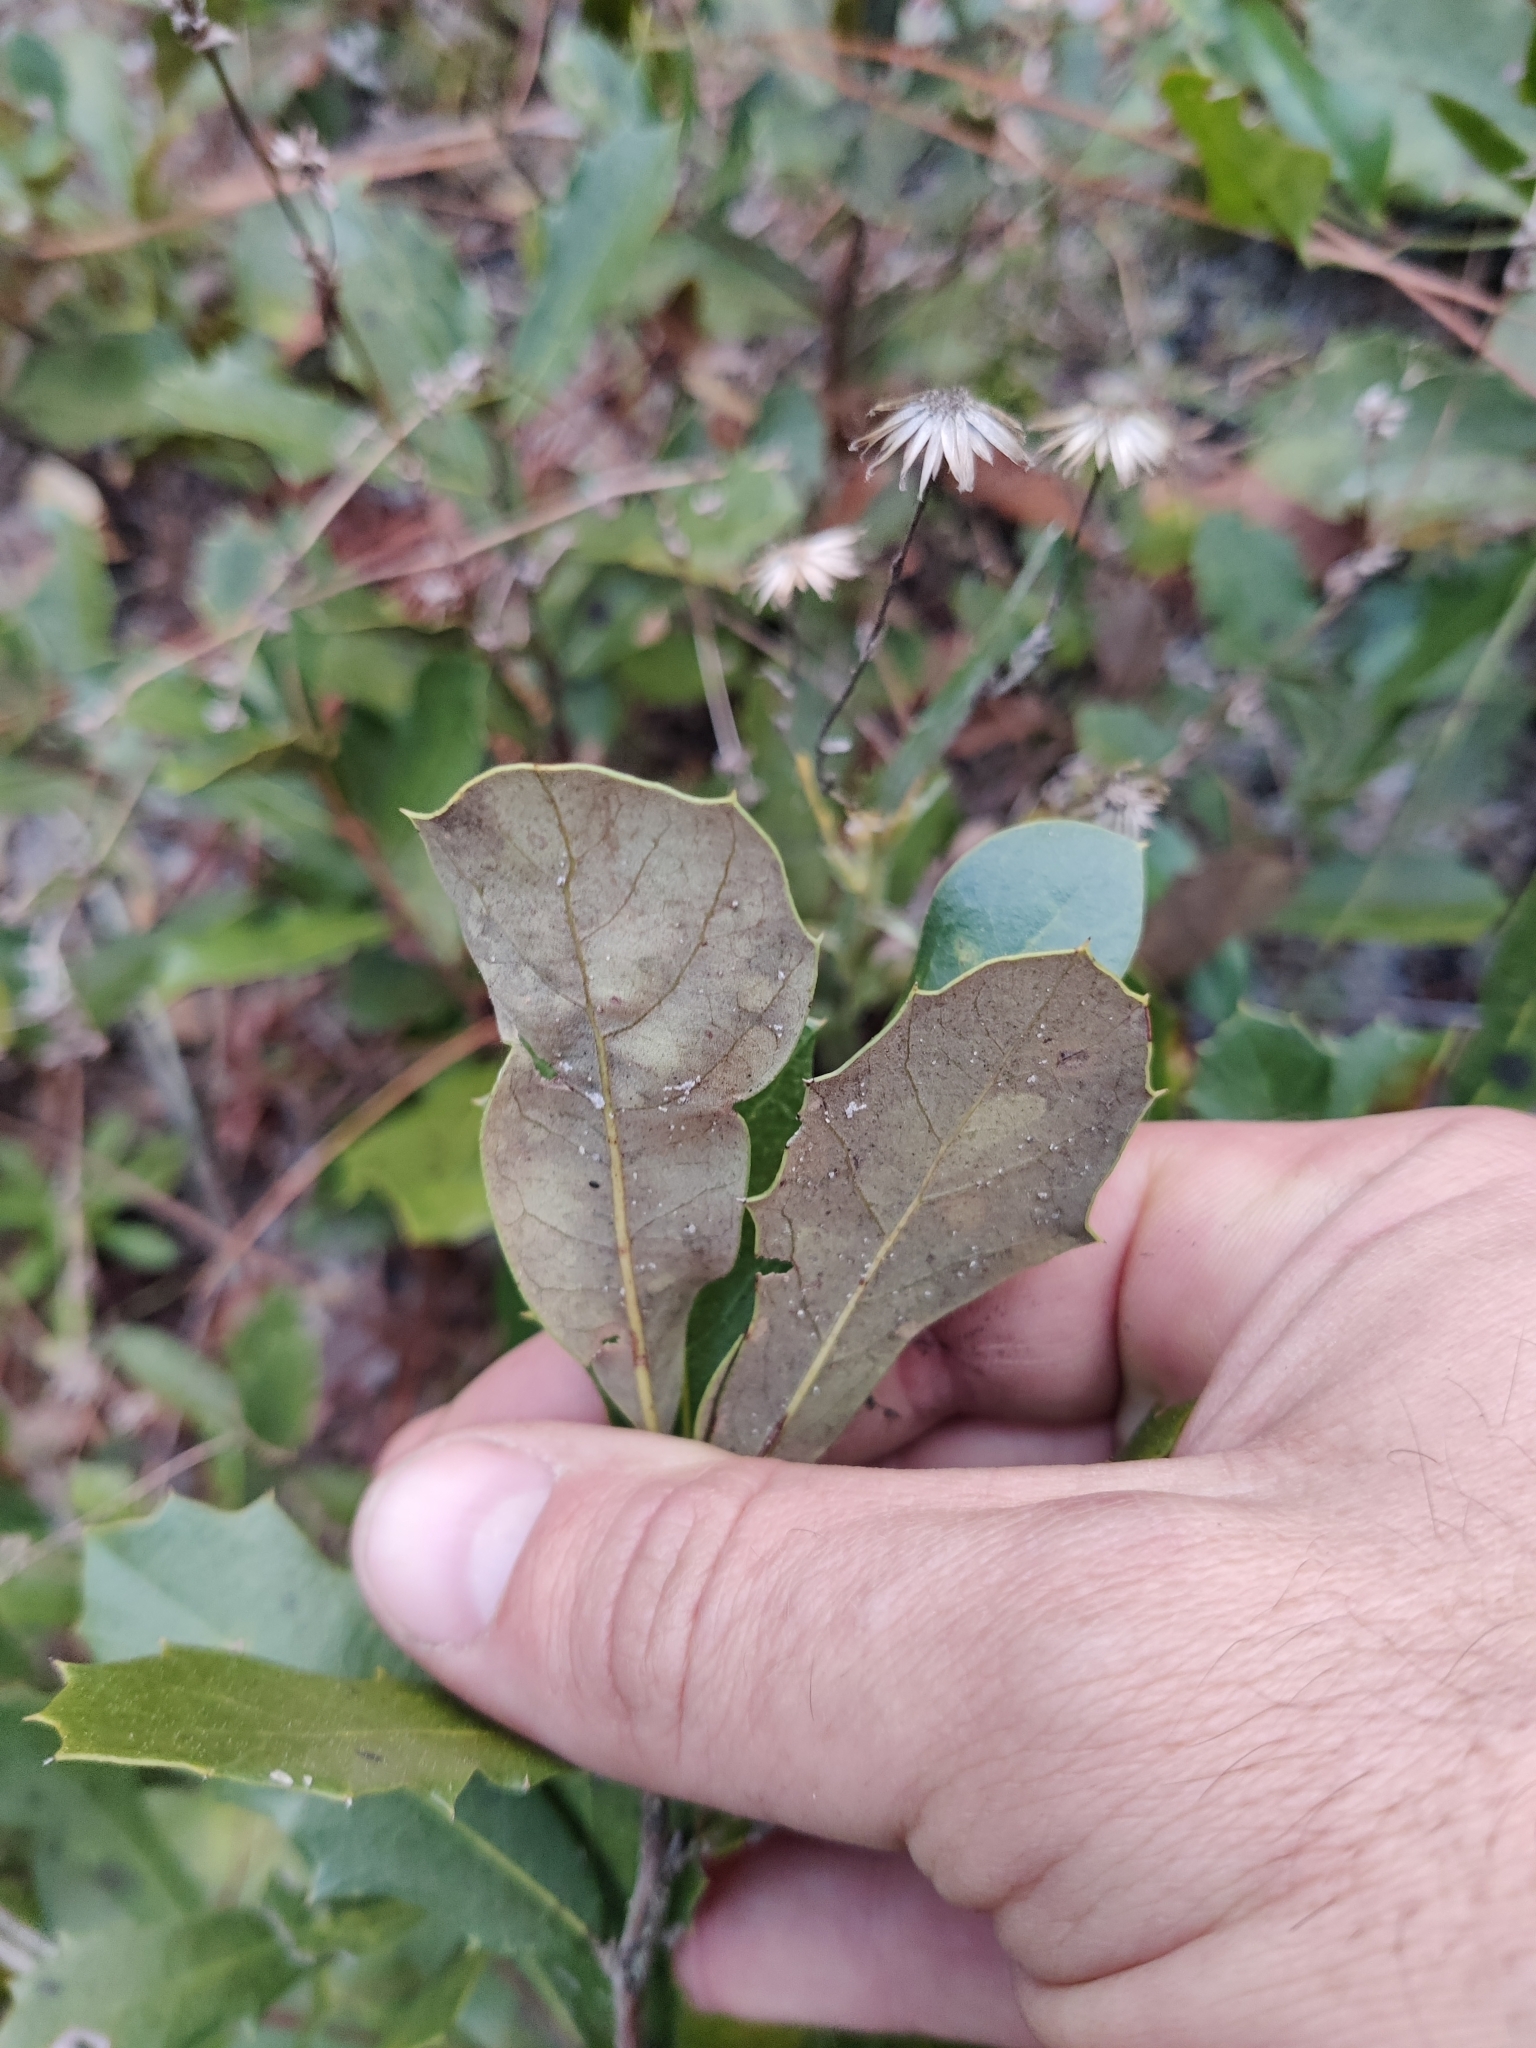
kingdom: Plantae
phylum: Tracheophyta
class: Magnoliopsida
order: Fagales
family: Fagaceae
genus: Quercus
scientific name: Quercus minima
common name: Dwarf live oak
